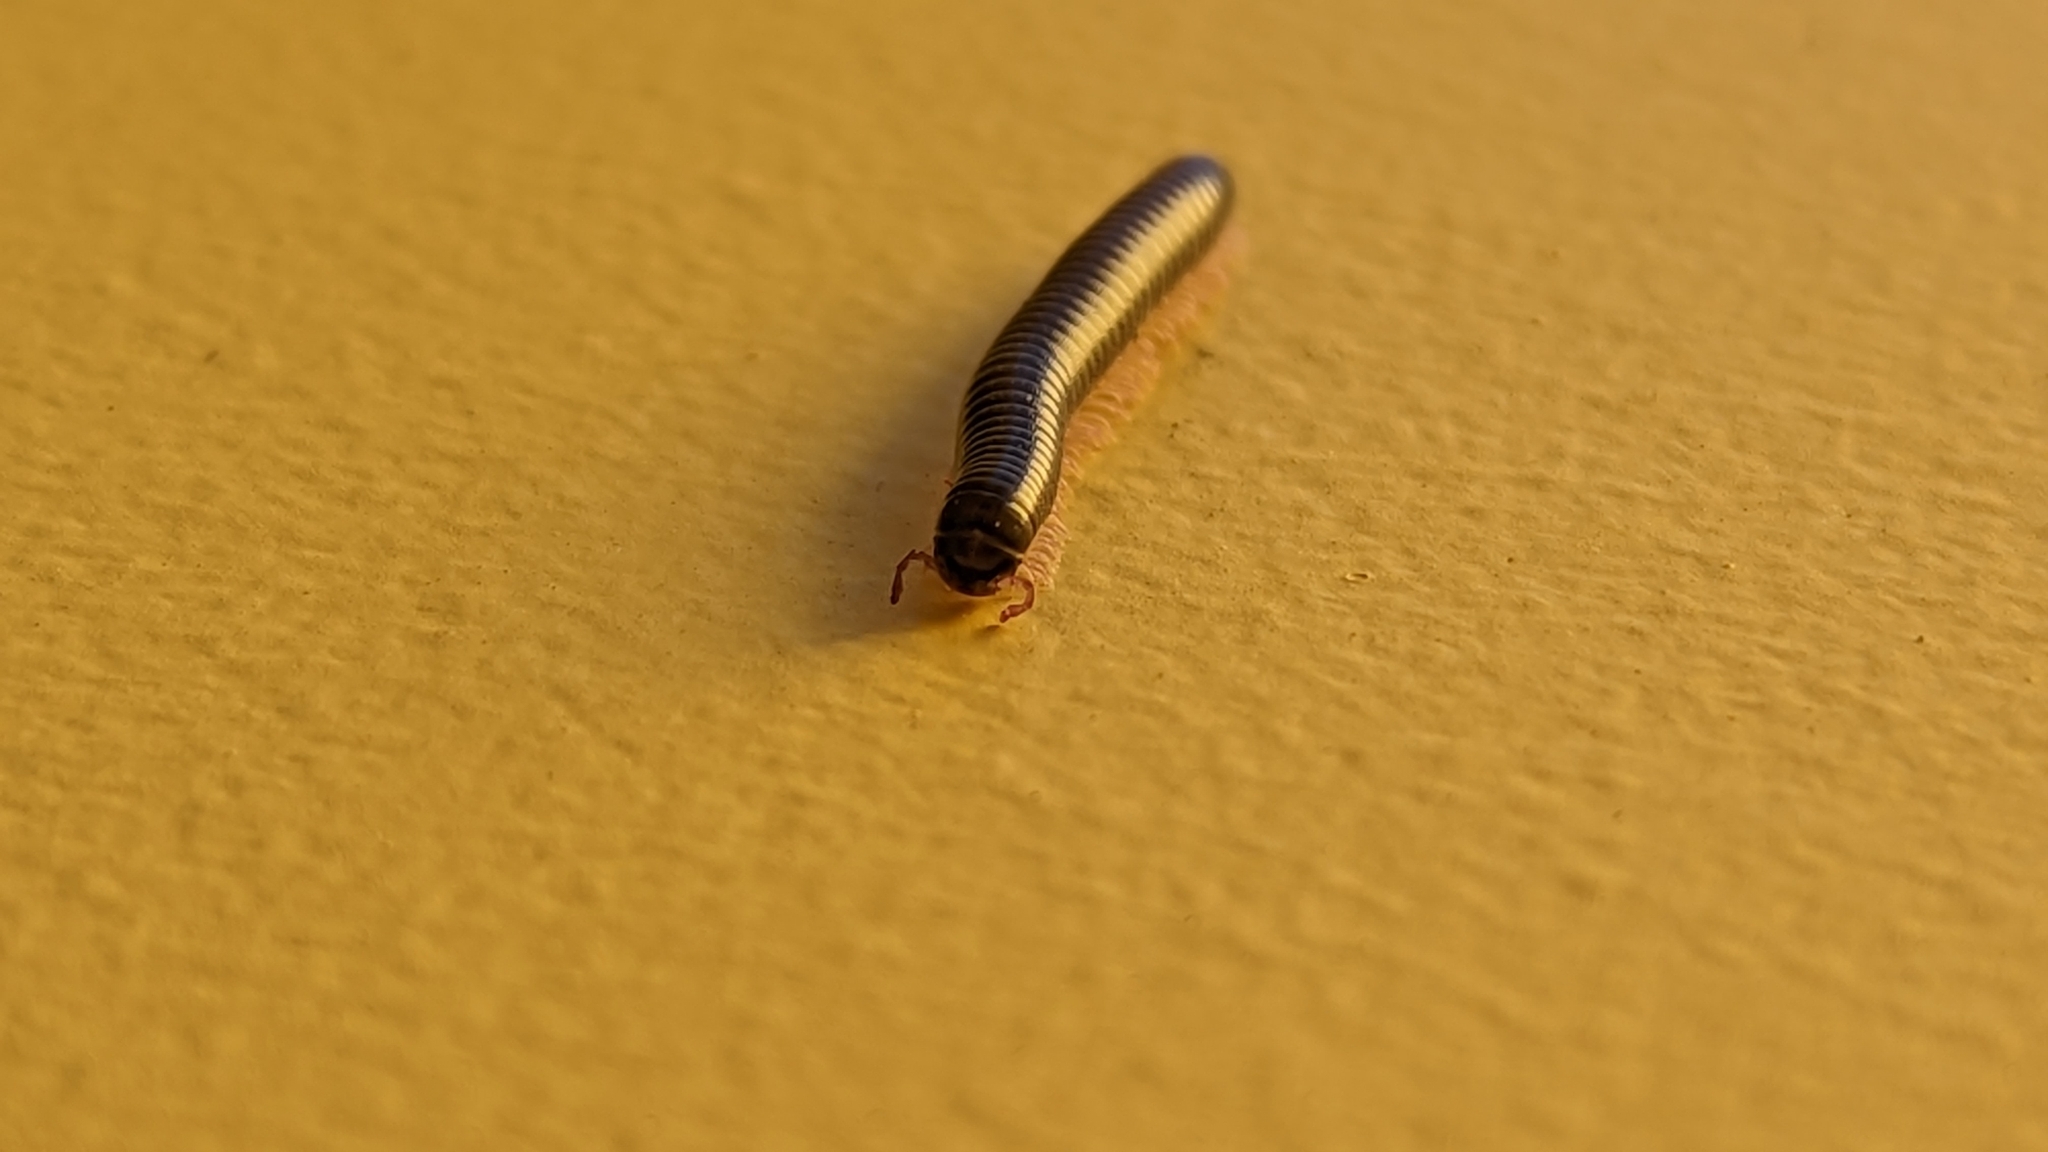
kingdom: Animalia
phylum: Arthropoda
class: Diplopoda
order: Julida
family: Julidae
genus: Ommatoiulus
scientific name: Ommatoiulus moreleti
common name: Portuguese millipede
